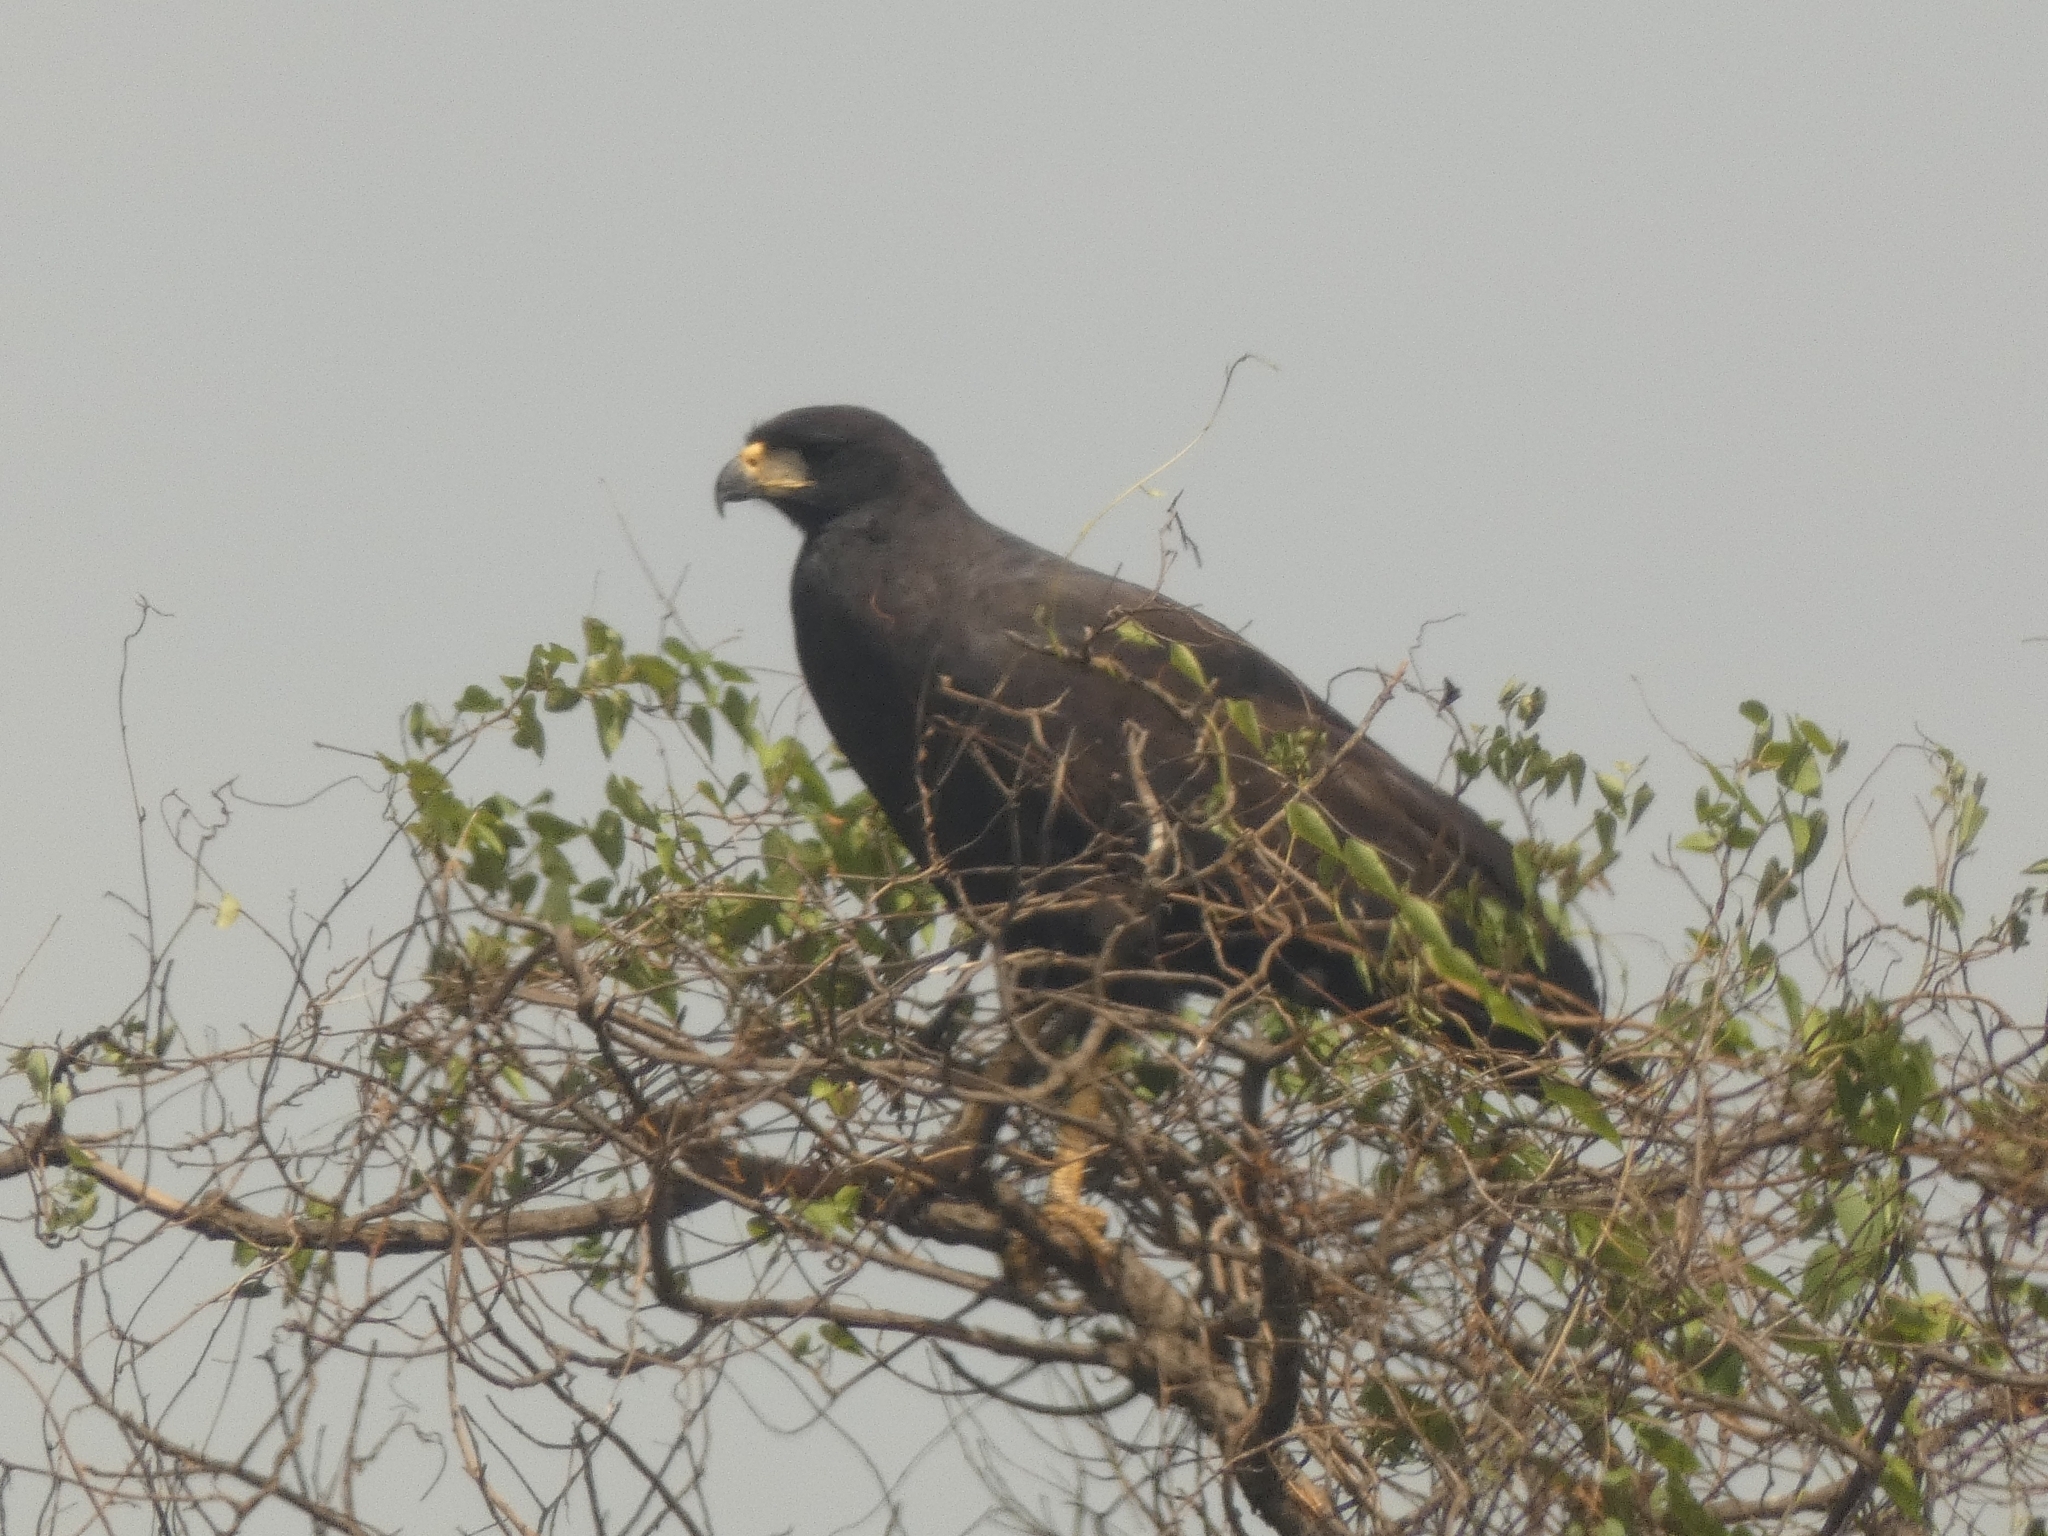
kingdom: Animalia
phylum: Chordata
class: Aves
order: Accipitriformes
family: Accipitridae
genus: Buteogallus
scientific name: Buteogallus urubitinga
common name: Great black hawk
